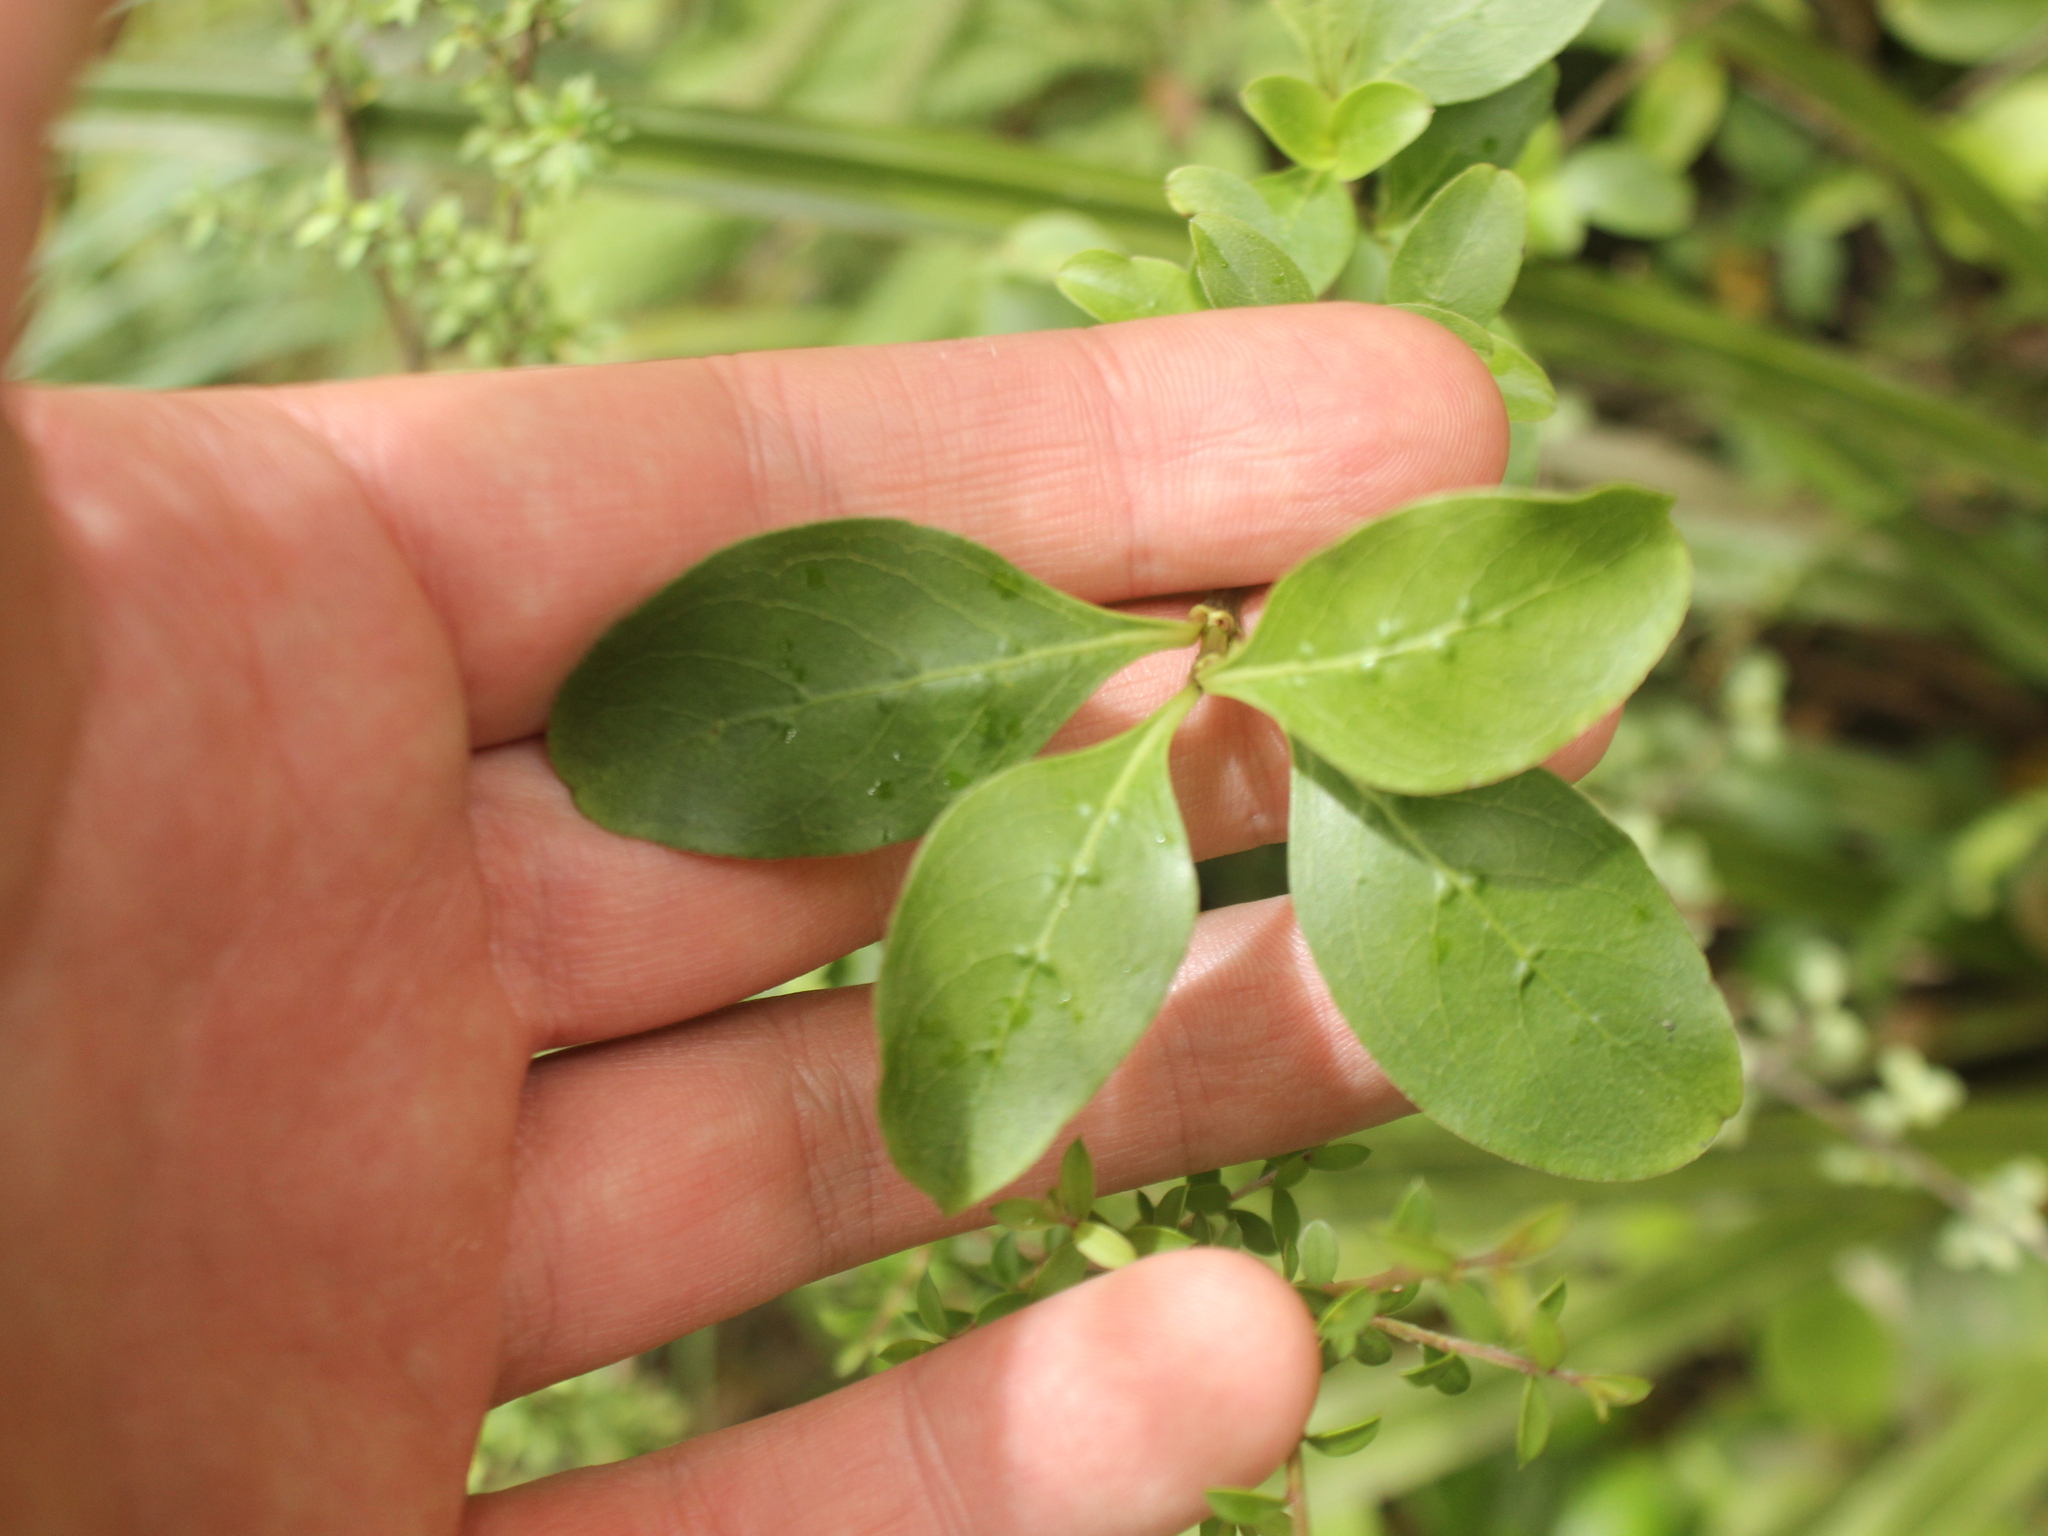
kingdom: Plantae
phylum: Tracheophyta
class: Magnoliopsida
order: Gentianales
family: Rubiaceae
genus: Coprosma
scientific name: Coprosma foetidissima
